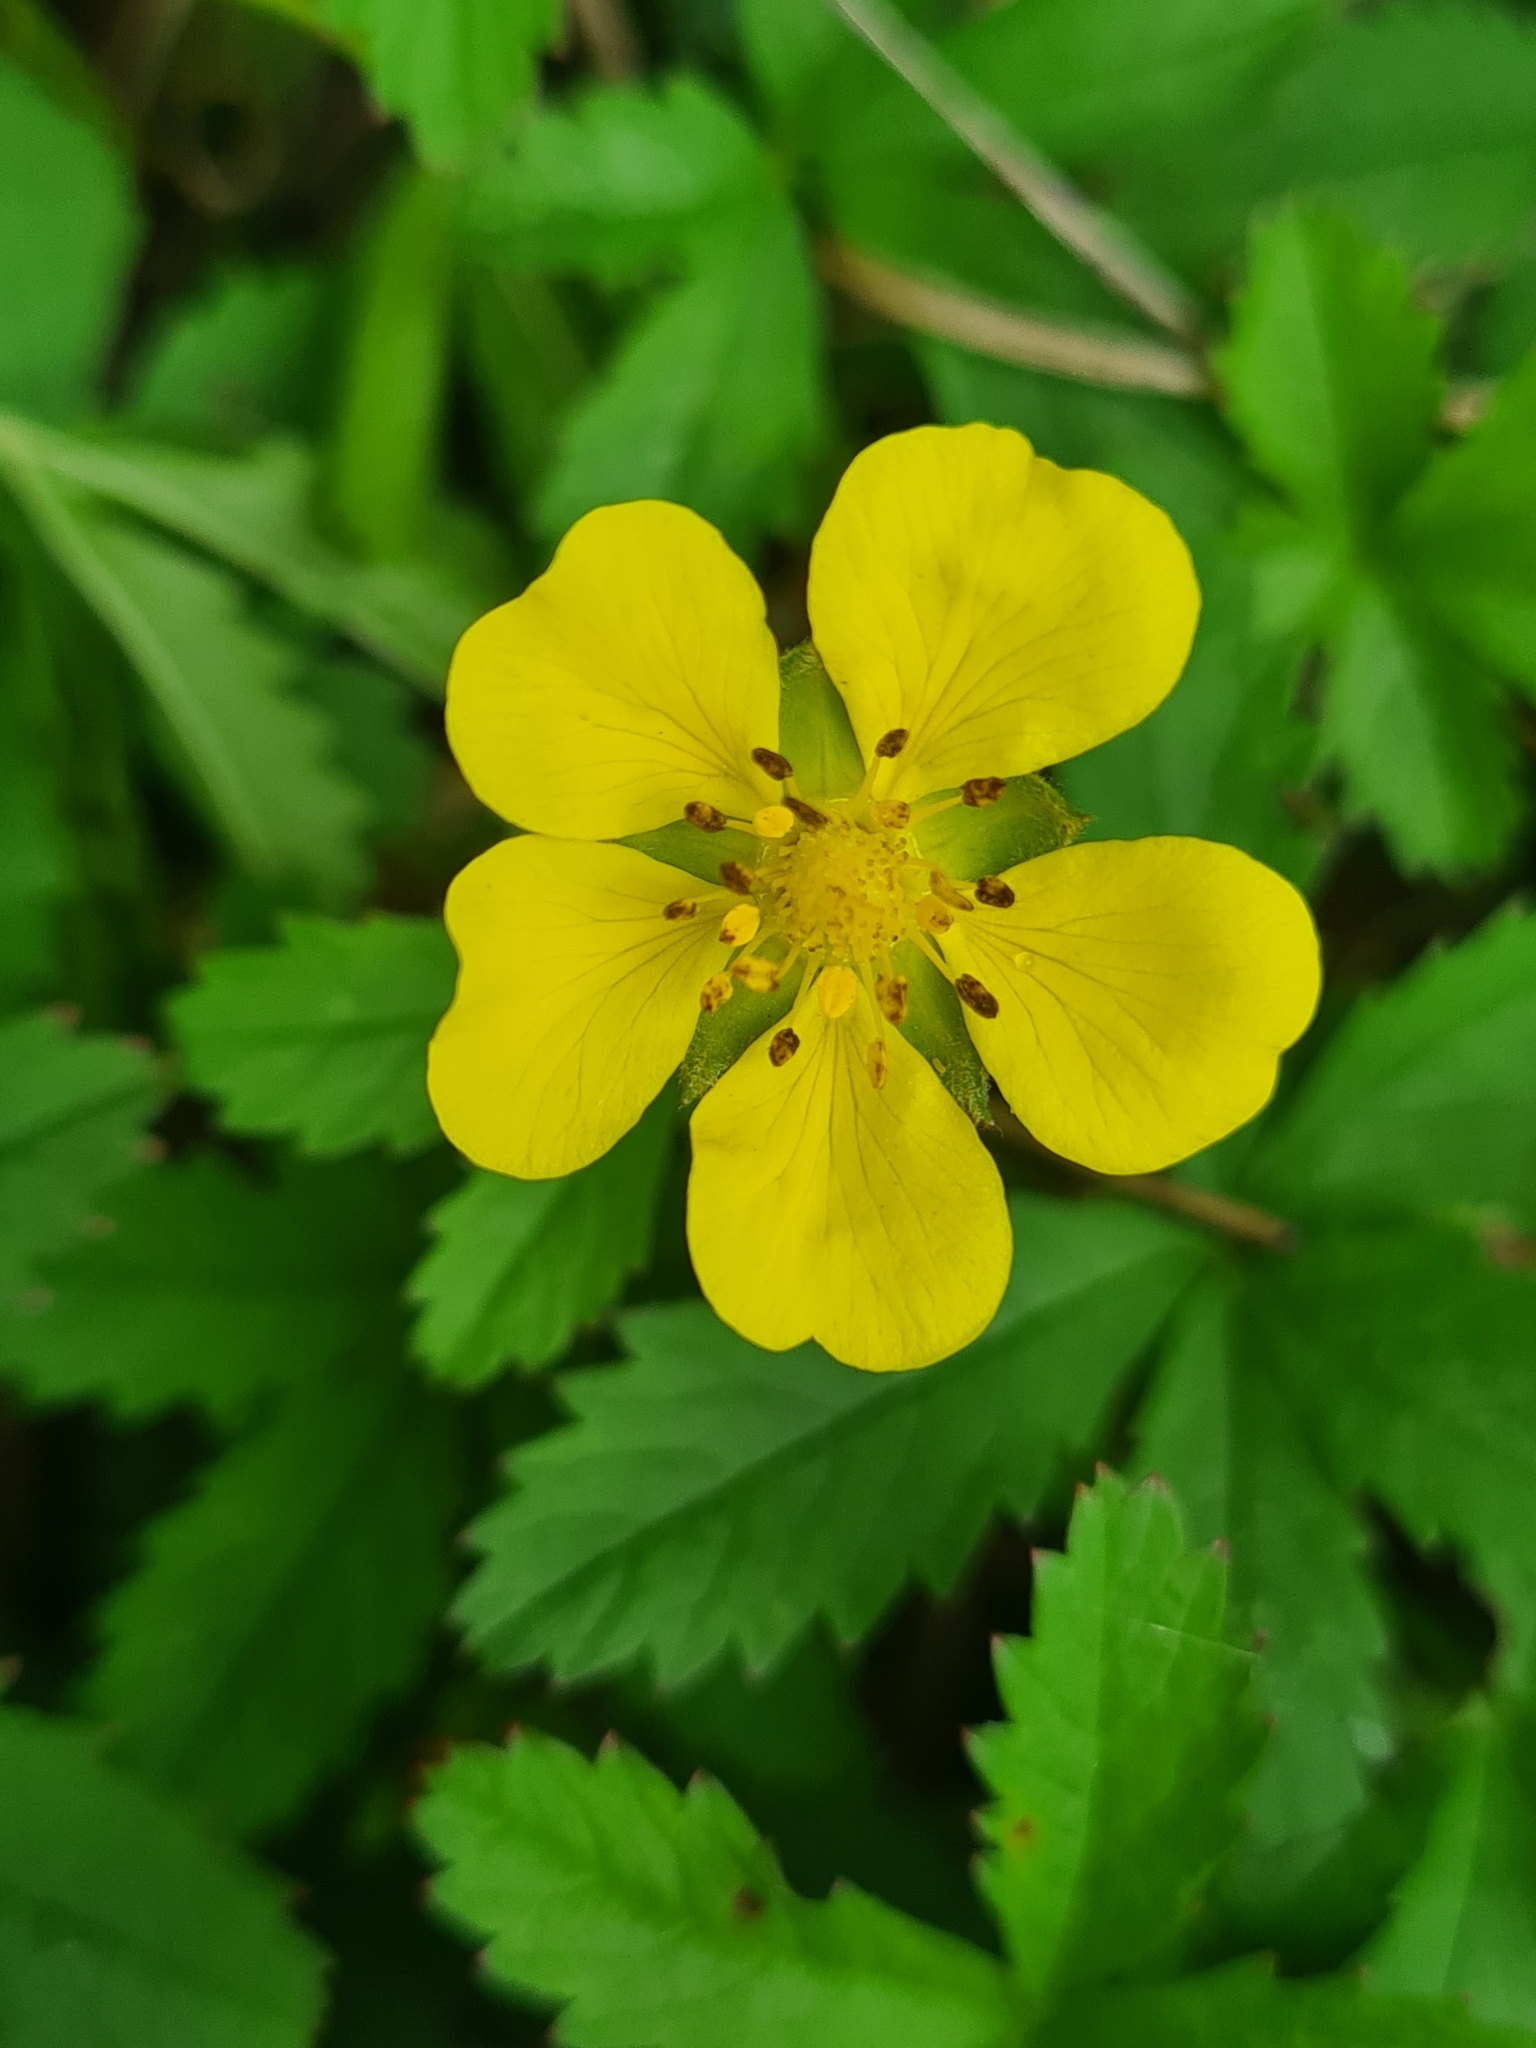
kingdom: Plantae
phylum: Tracheophyta
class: Magnoliopsida
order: Rosales
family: Rosaceae
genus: Potentilla
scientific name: Potentilla reptans
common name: Creeping cinquefoil
